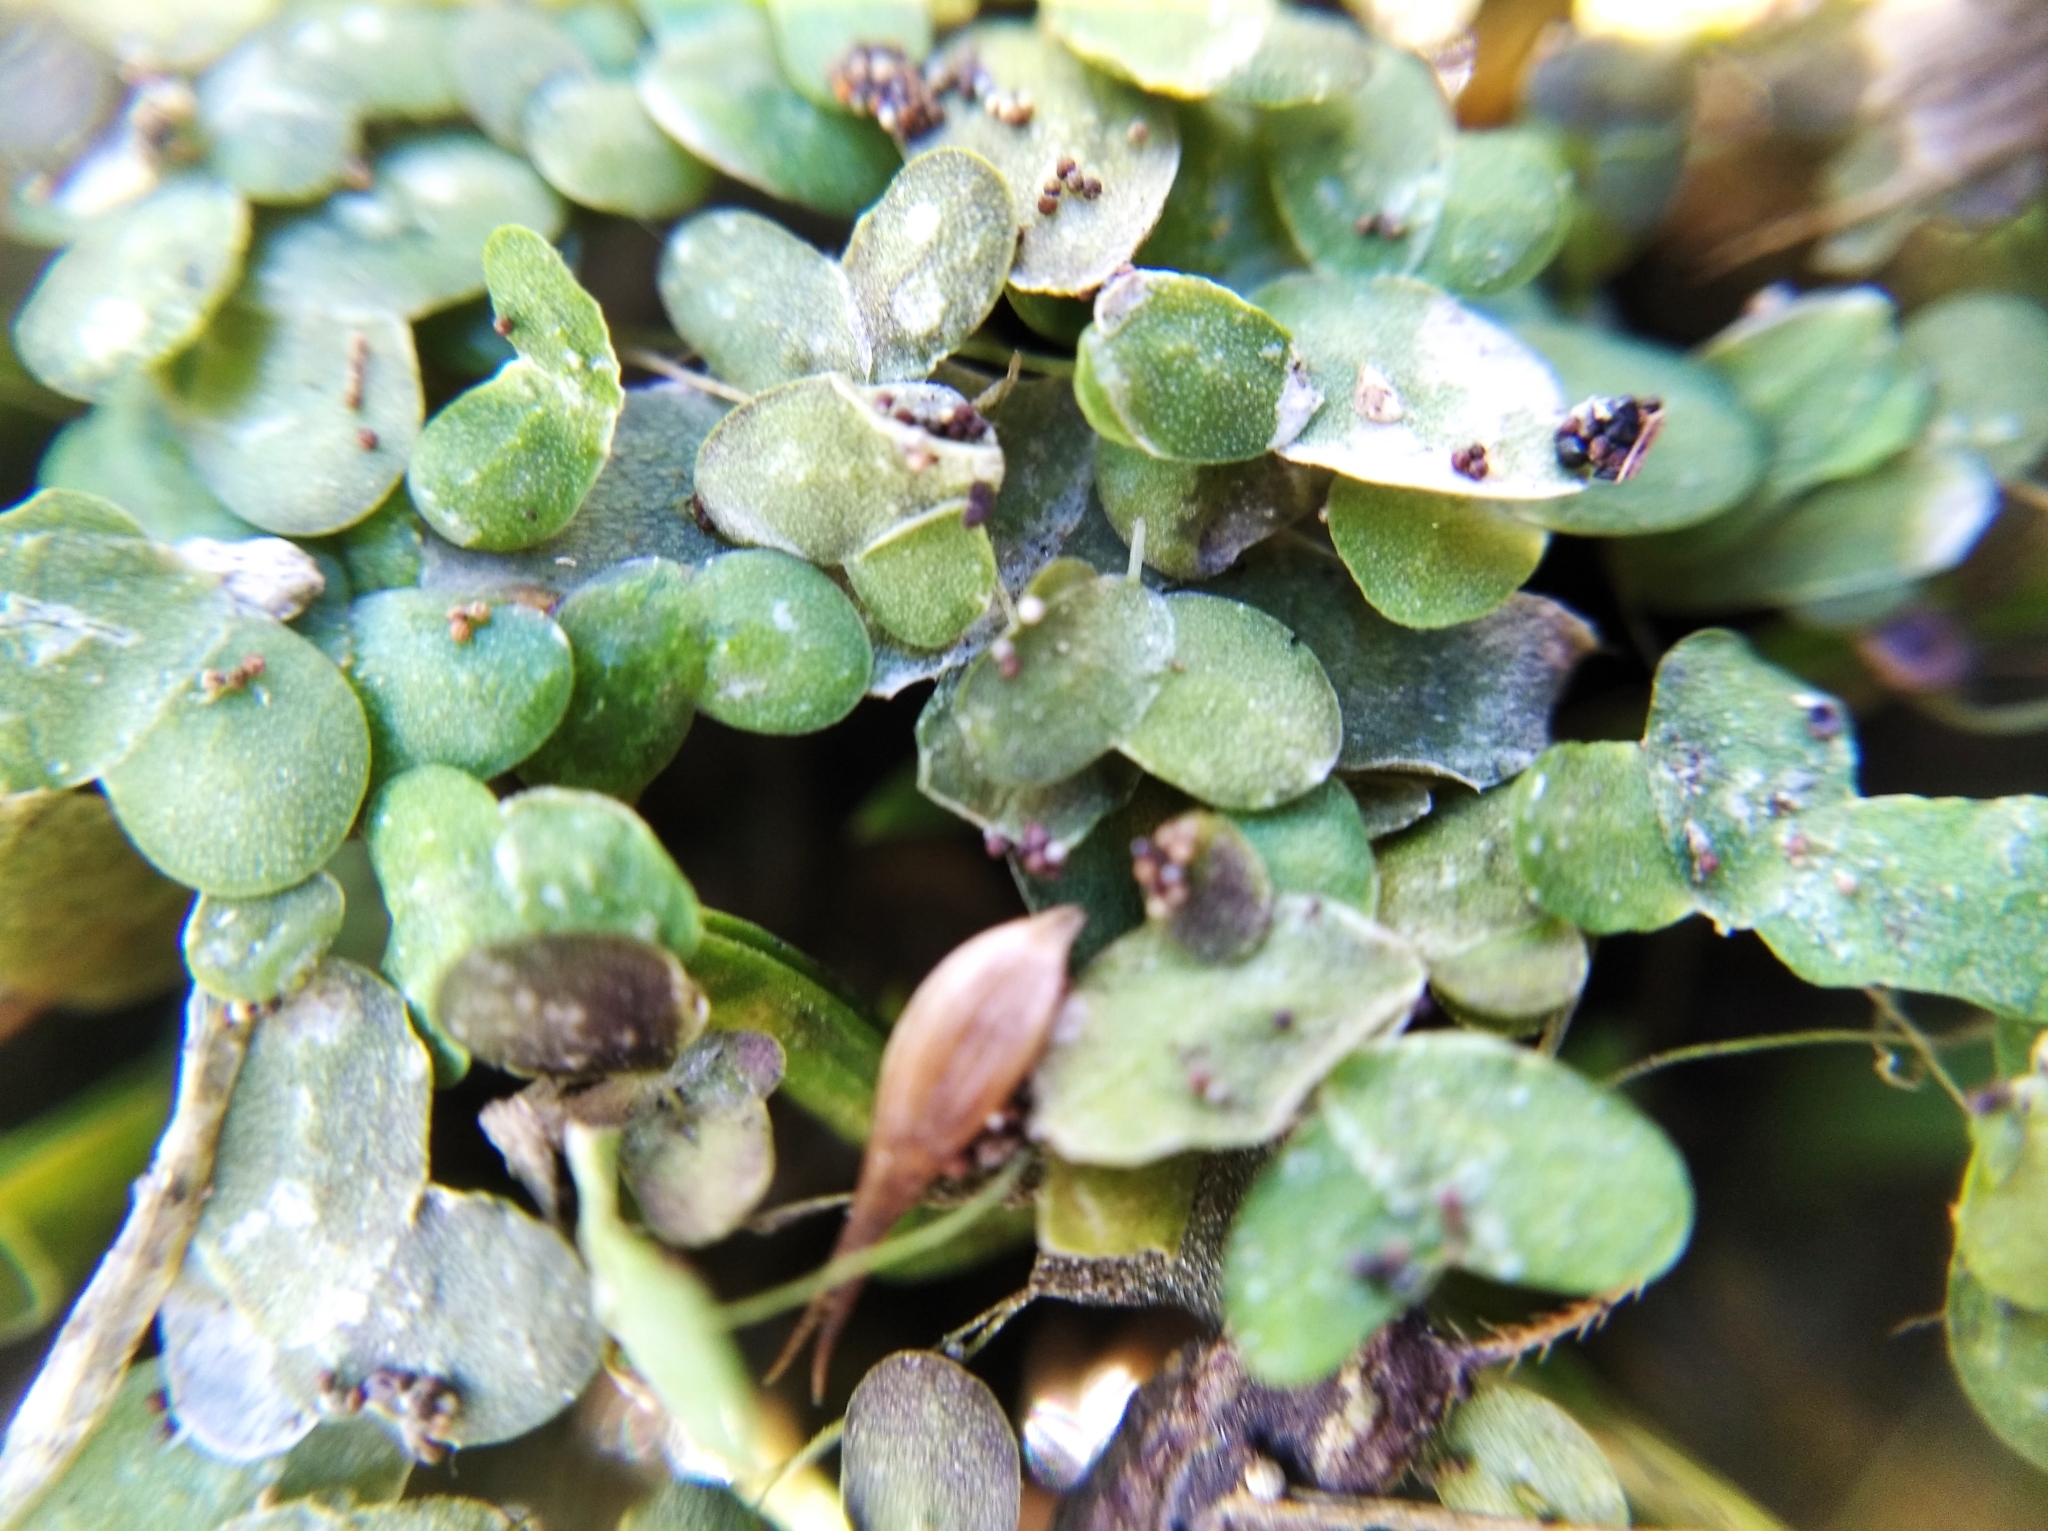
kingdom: Plantae
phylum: Tracheophyta
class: Liliopsida
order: Alismatales
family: Araceae
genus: Lemna
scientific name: Lemna minor
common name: Common duckweed
